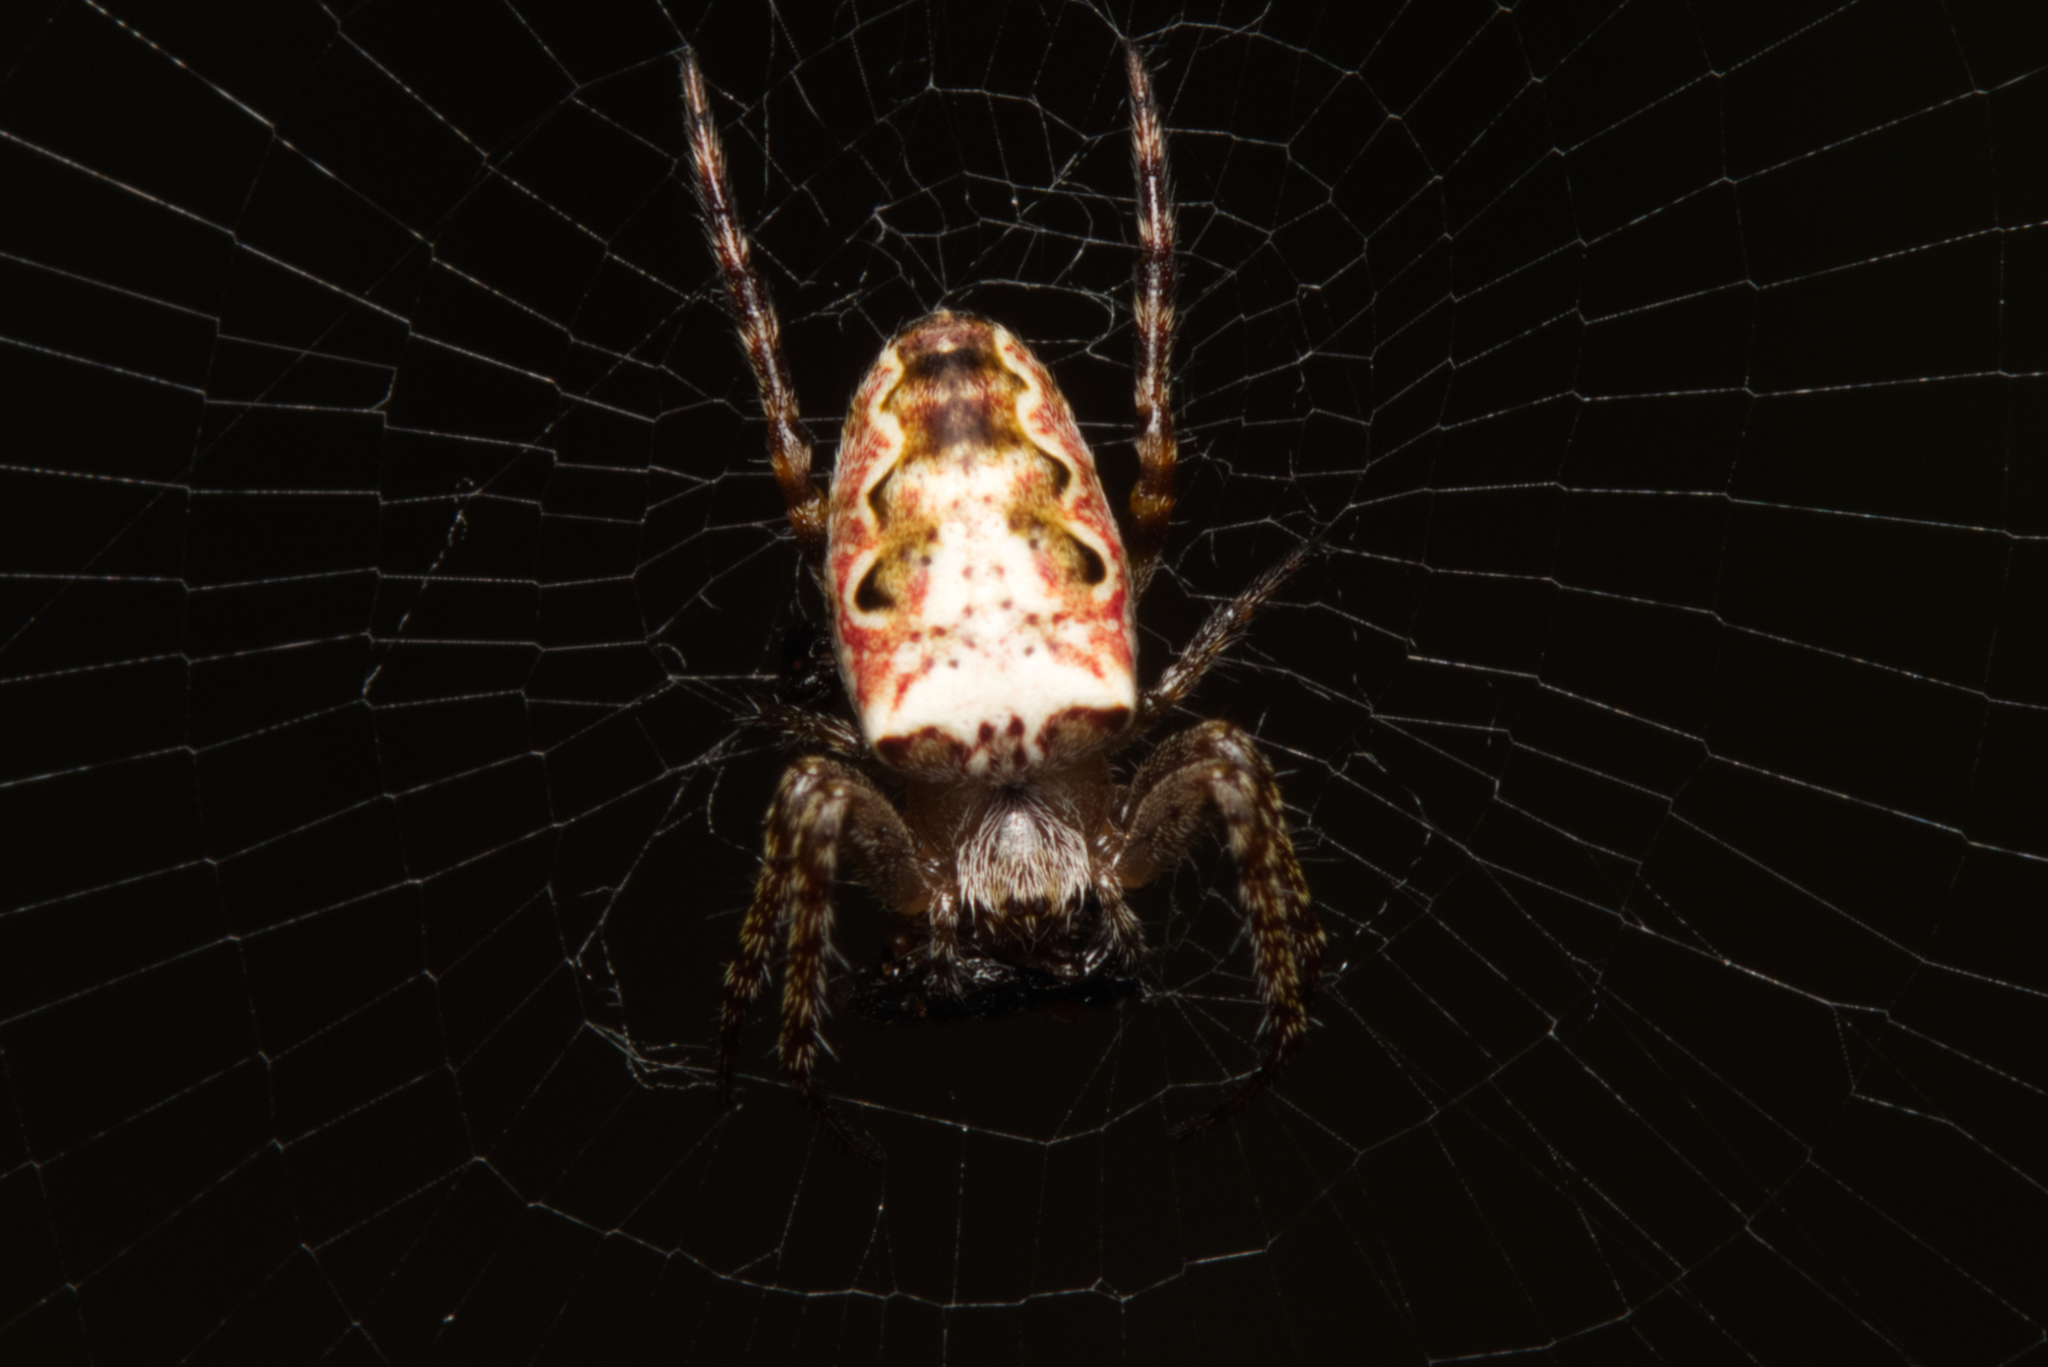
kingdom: Animalia
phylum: Arthropoda
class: Arachnida
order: Araneae
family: Araneidae
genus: Plebs
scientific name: Plebs eburnus
